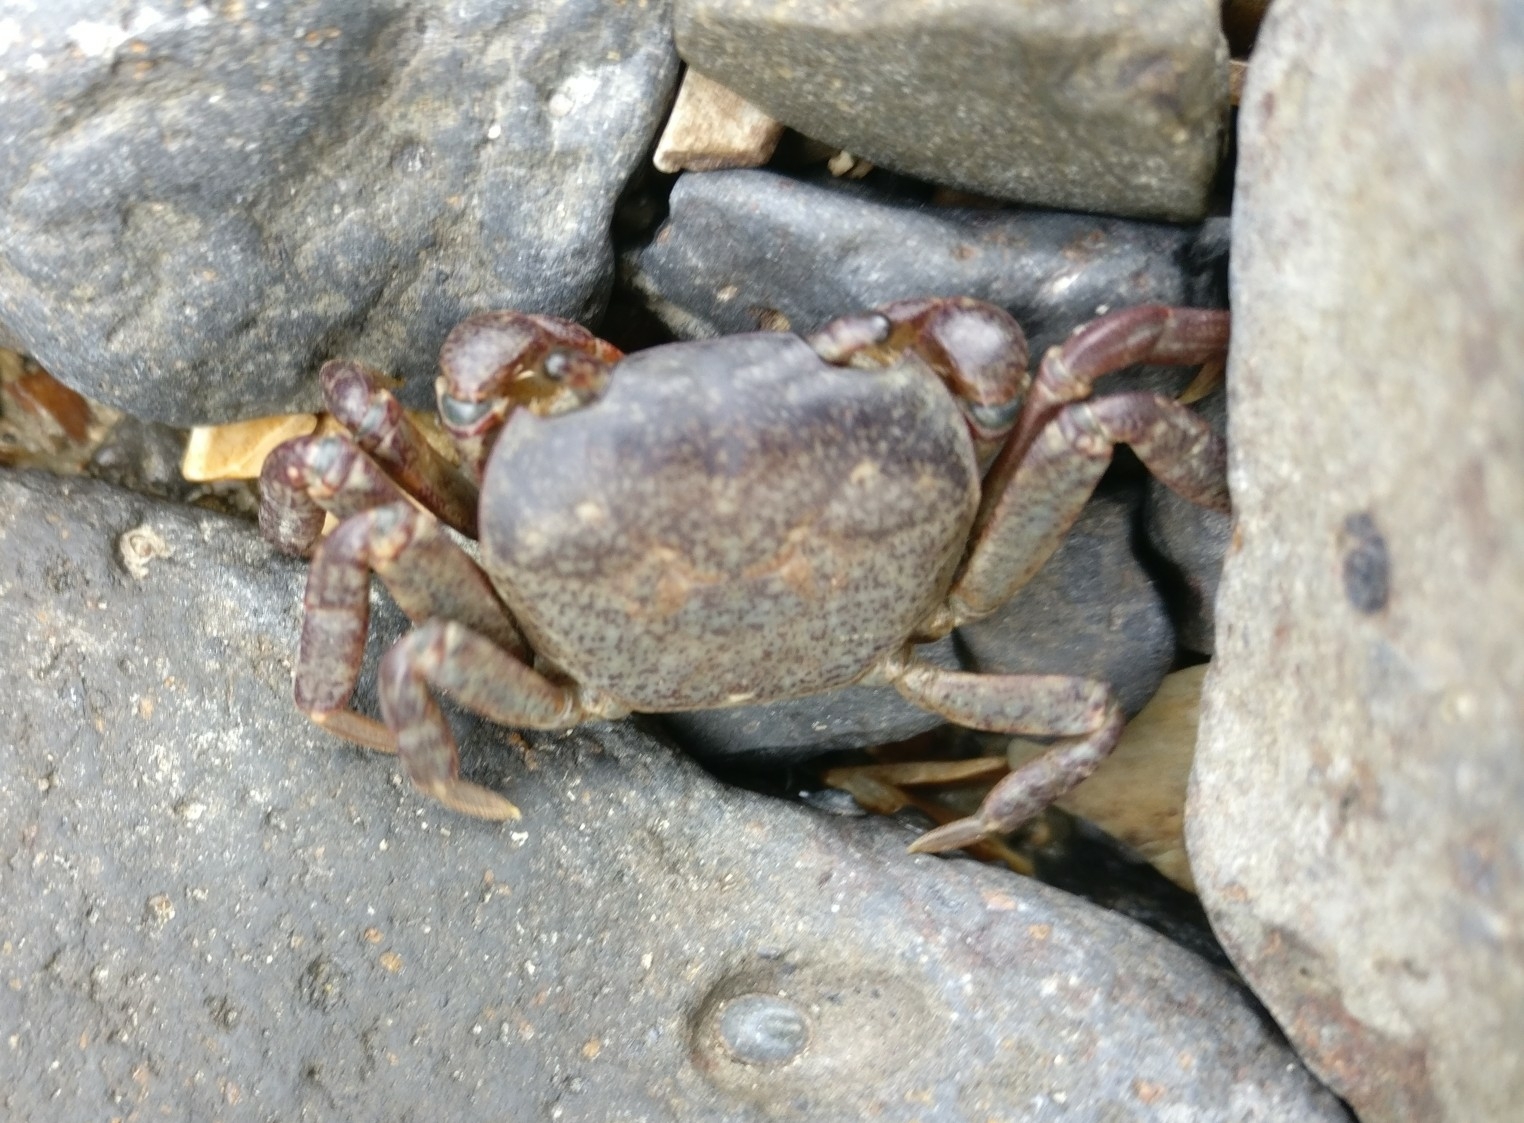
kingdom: Animalia
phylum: Arthropoda
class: Malacostraca
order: Decapoda
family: Varunidae
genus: Cyclograpsus
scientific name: Cyclograpsus lavauxi
